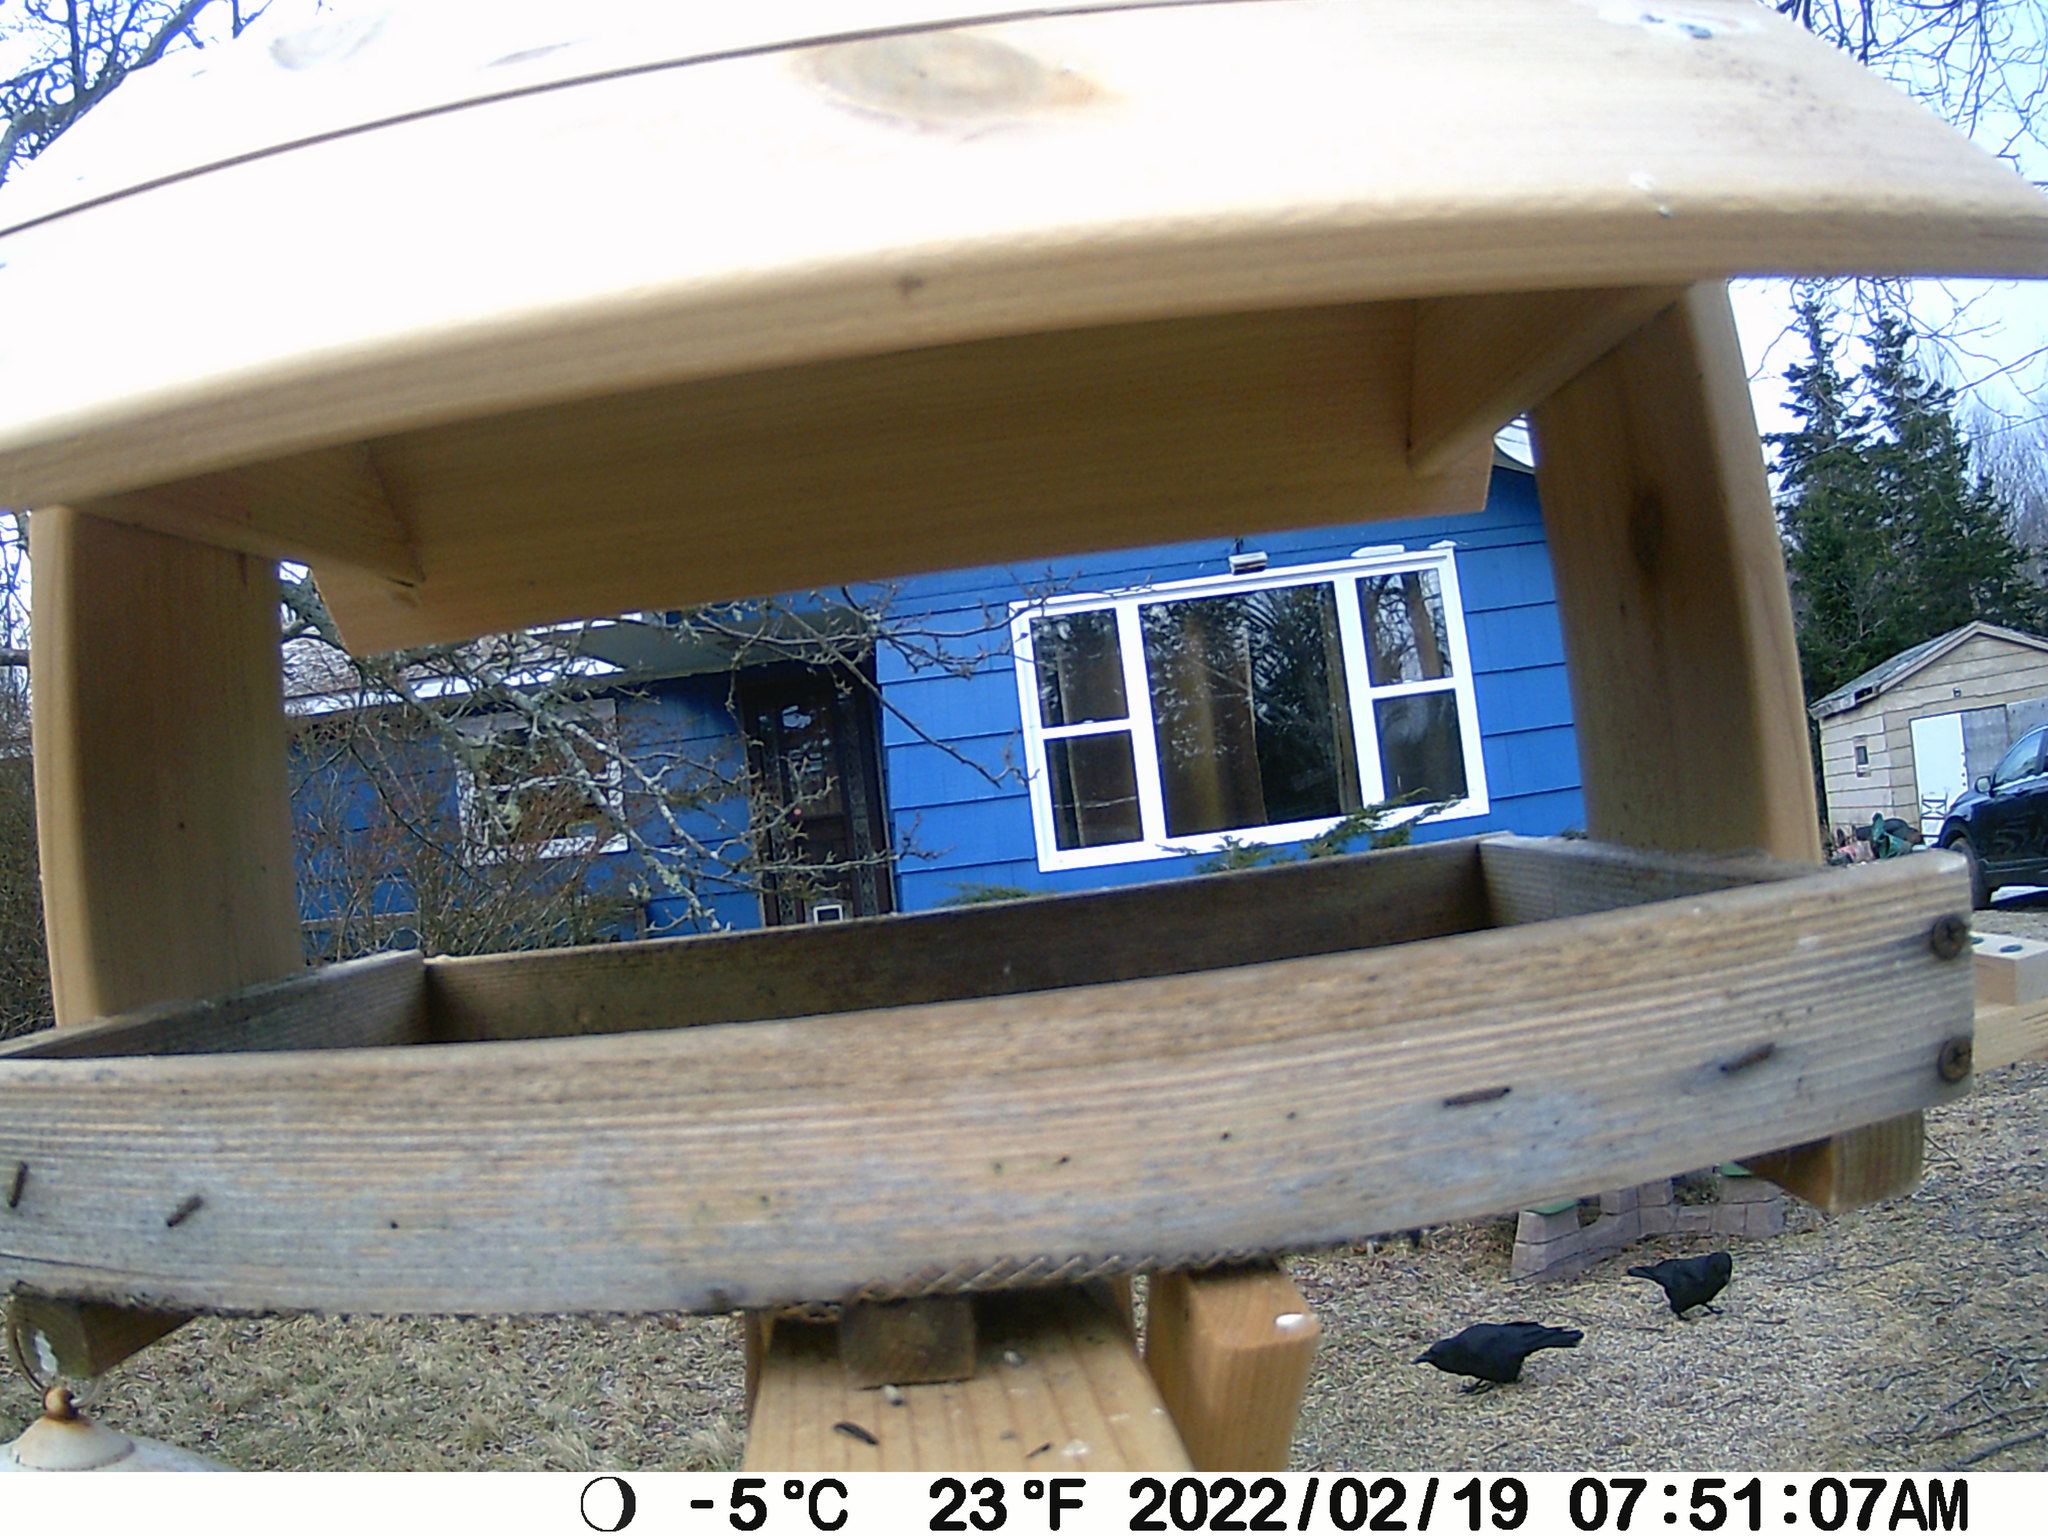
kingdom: Animalia
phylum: Chordata
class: Aves
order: Passeriformes
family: Corvidae
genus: Corvus
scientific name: Corvus brachyrhynchos
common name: American crow
